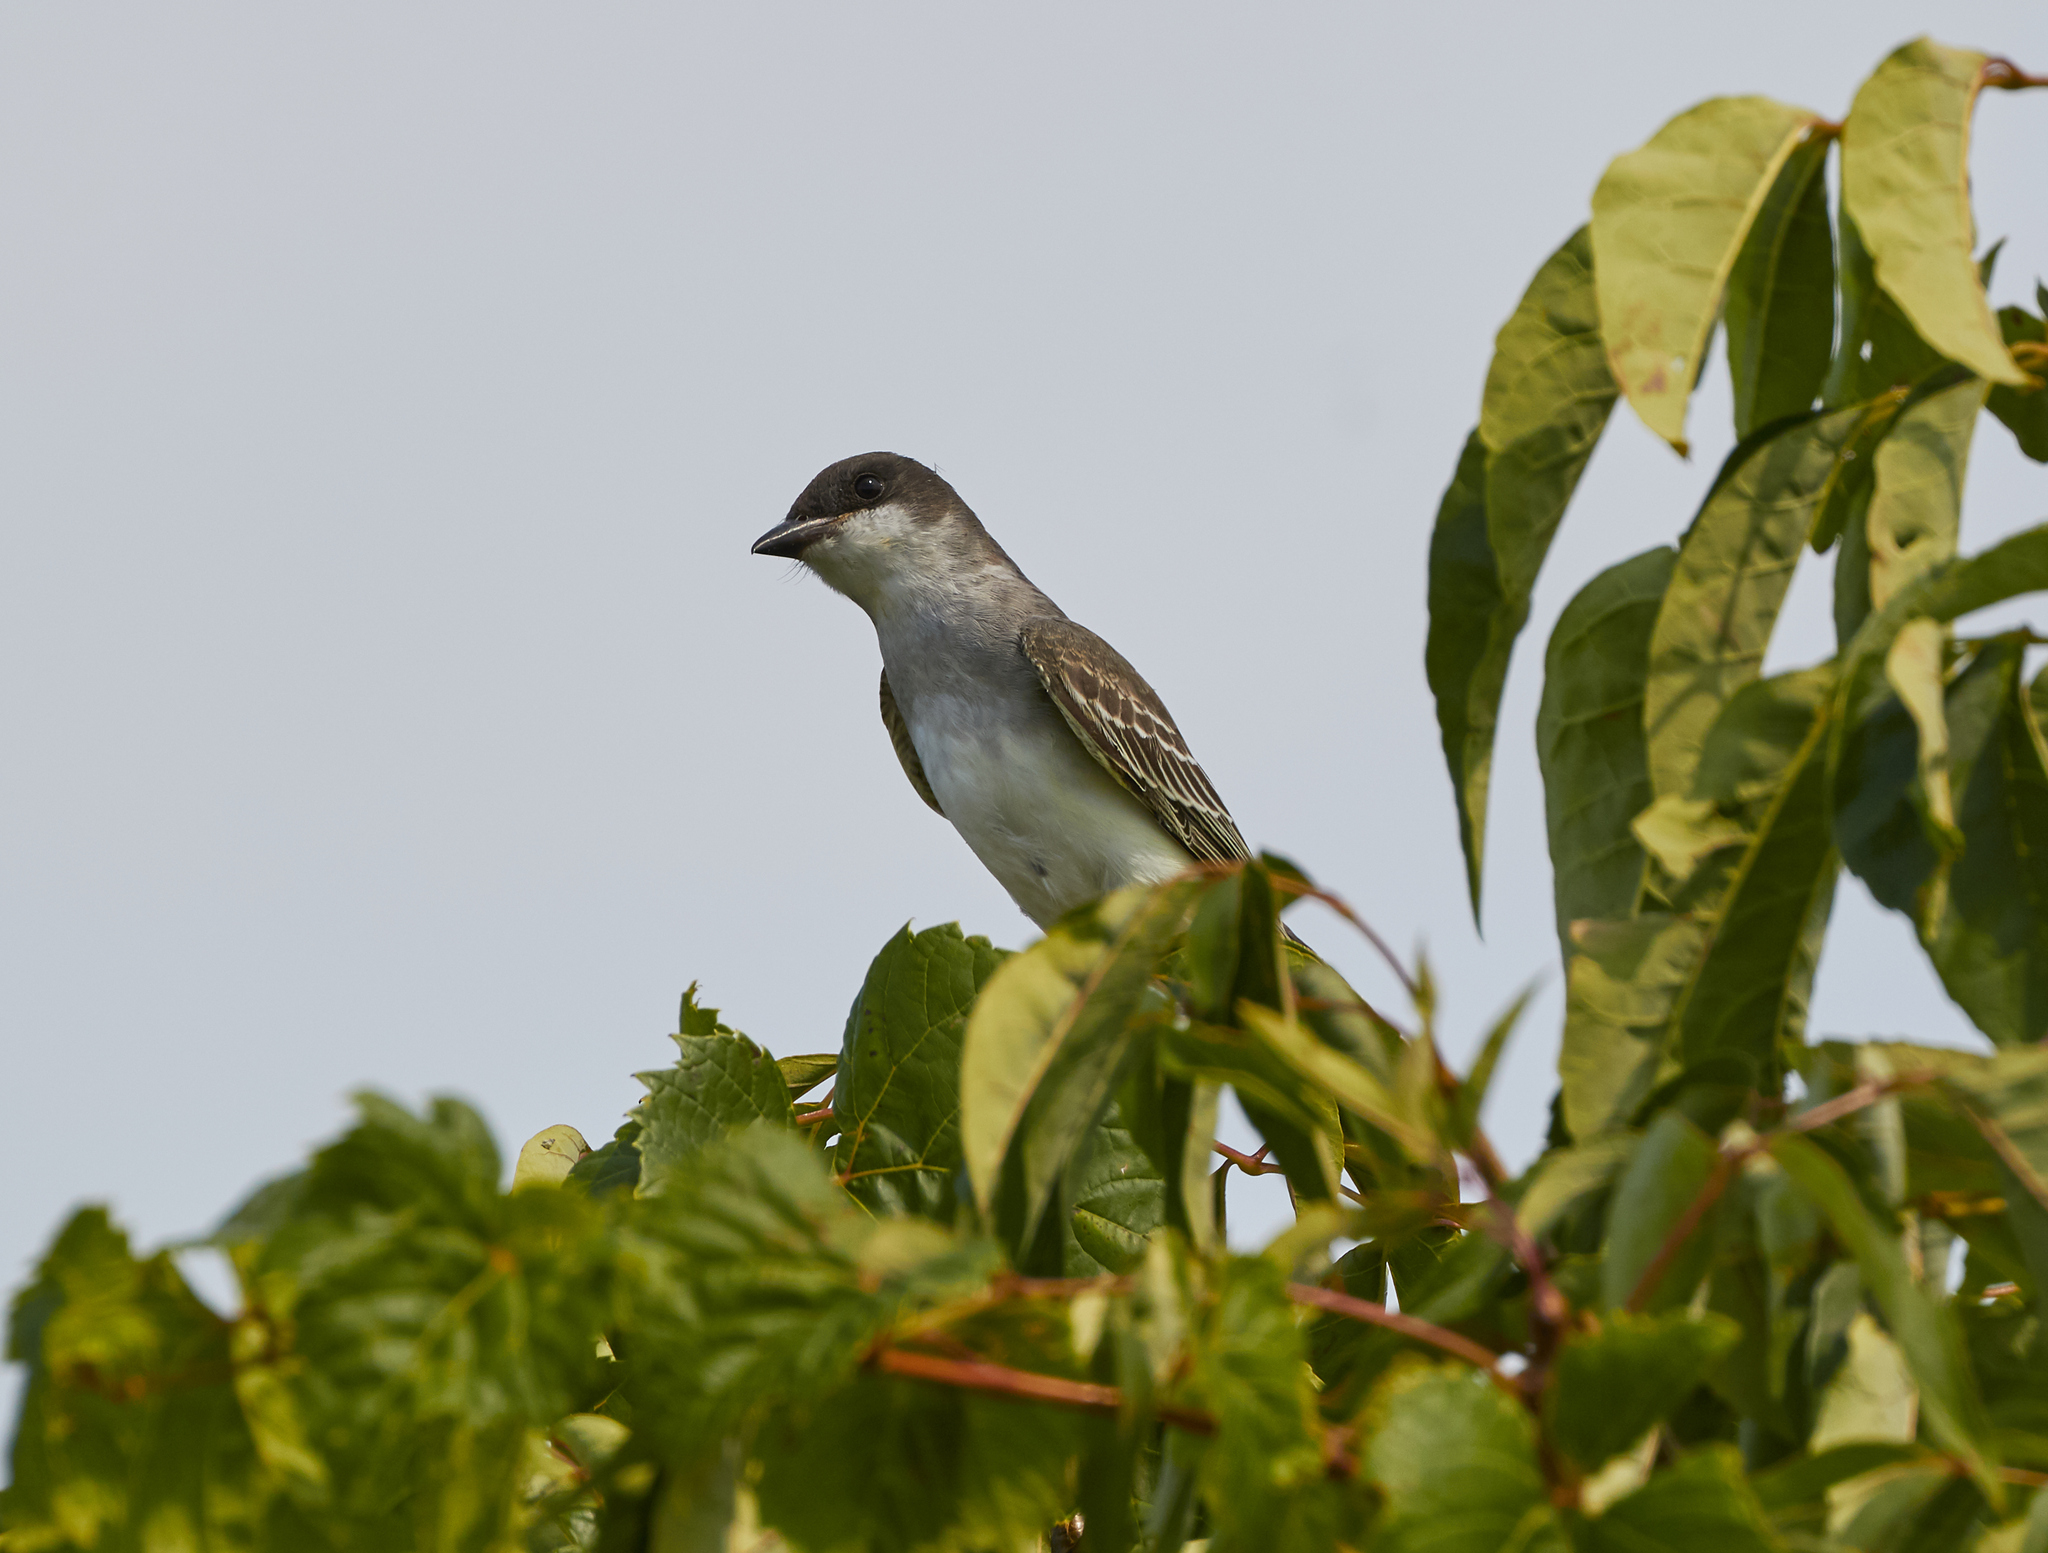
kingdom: Animalia
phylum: Chordata
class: Aves
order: Passeriformes
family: Tyrannidae
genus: Tyrannus
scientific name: Tyrannus tyrannus
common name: Eastern kingbird
